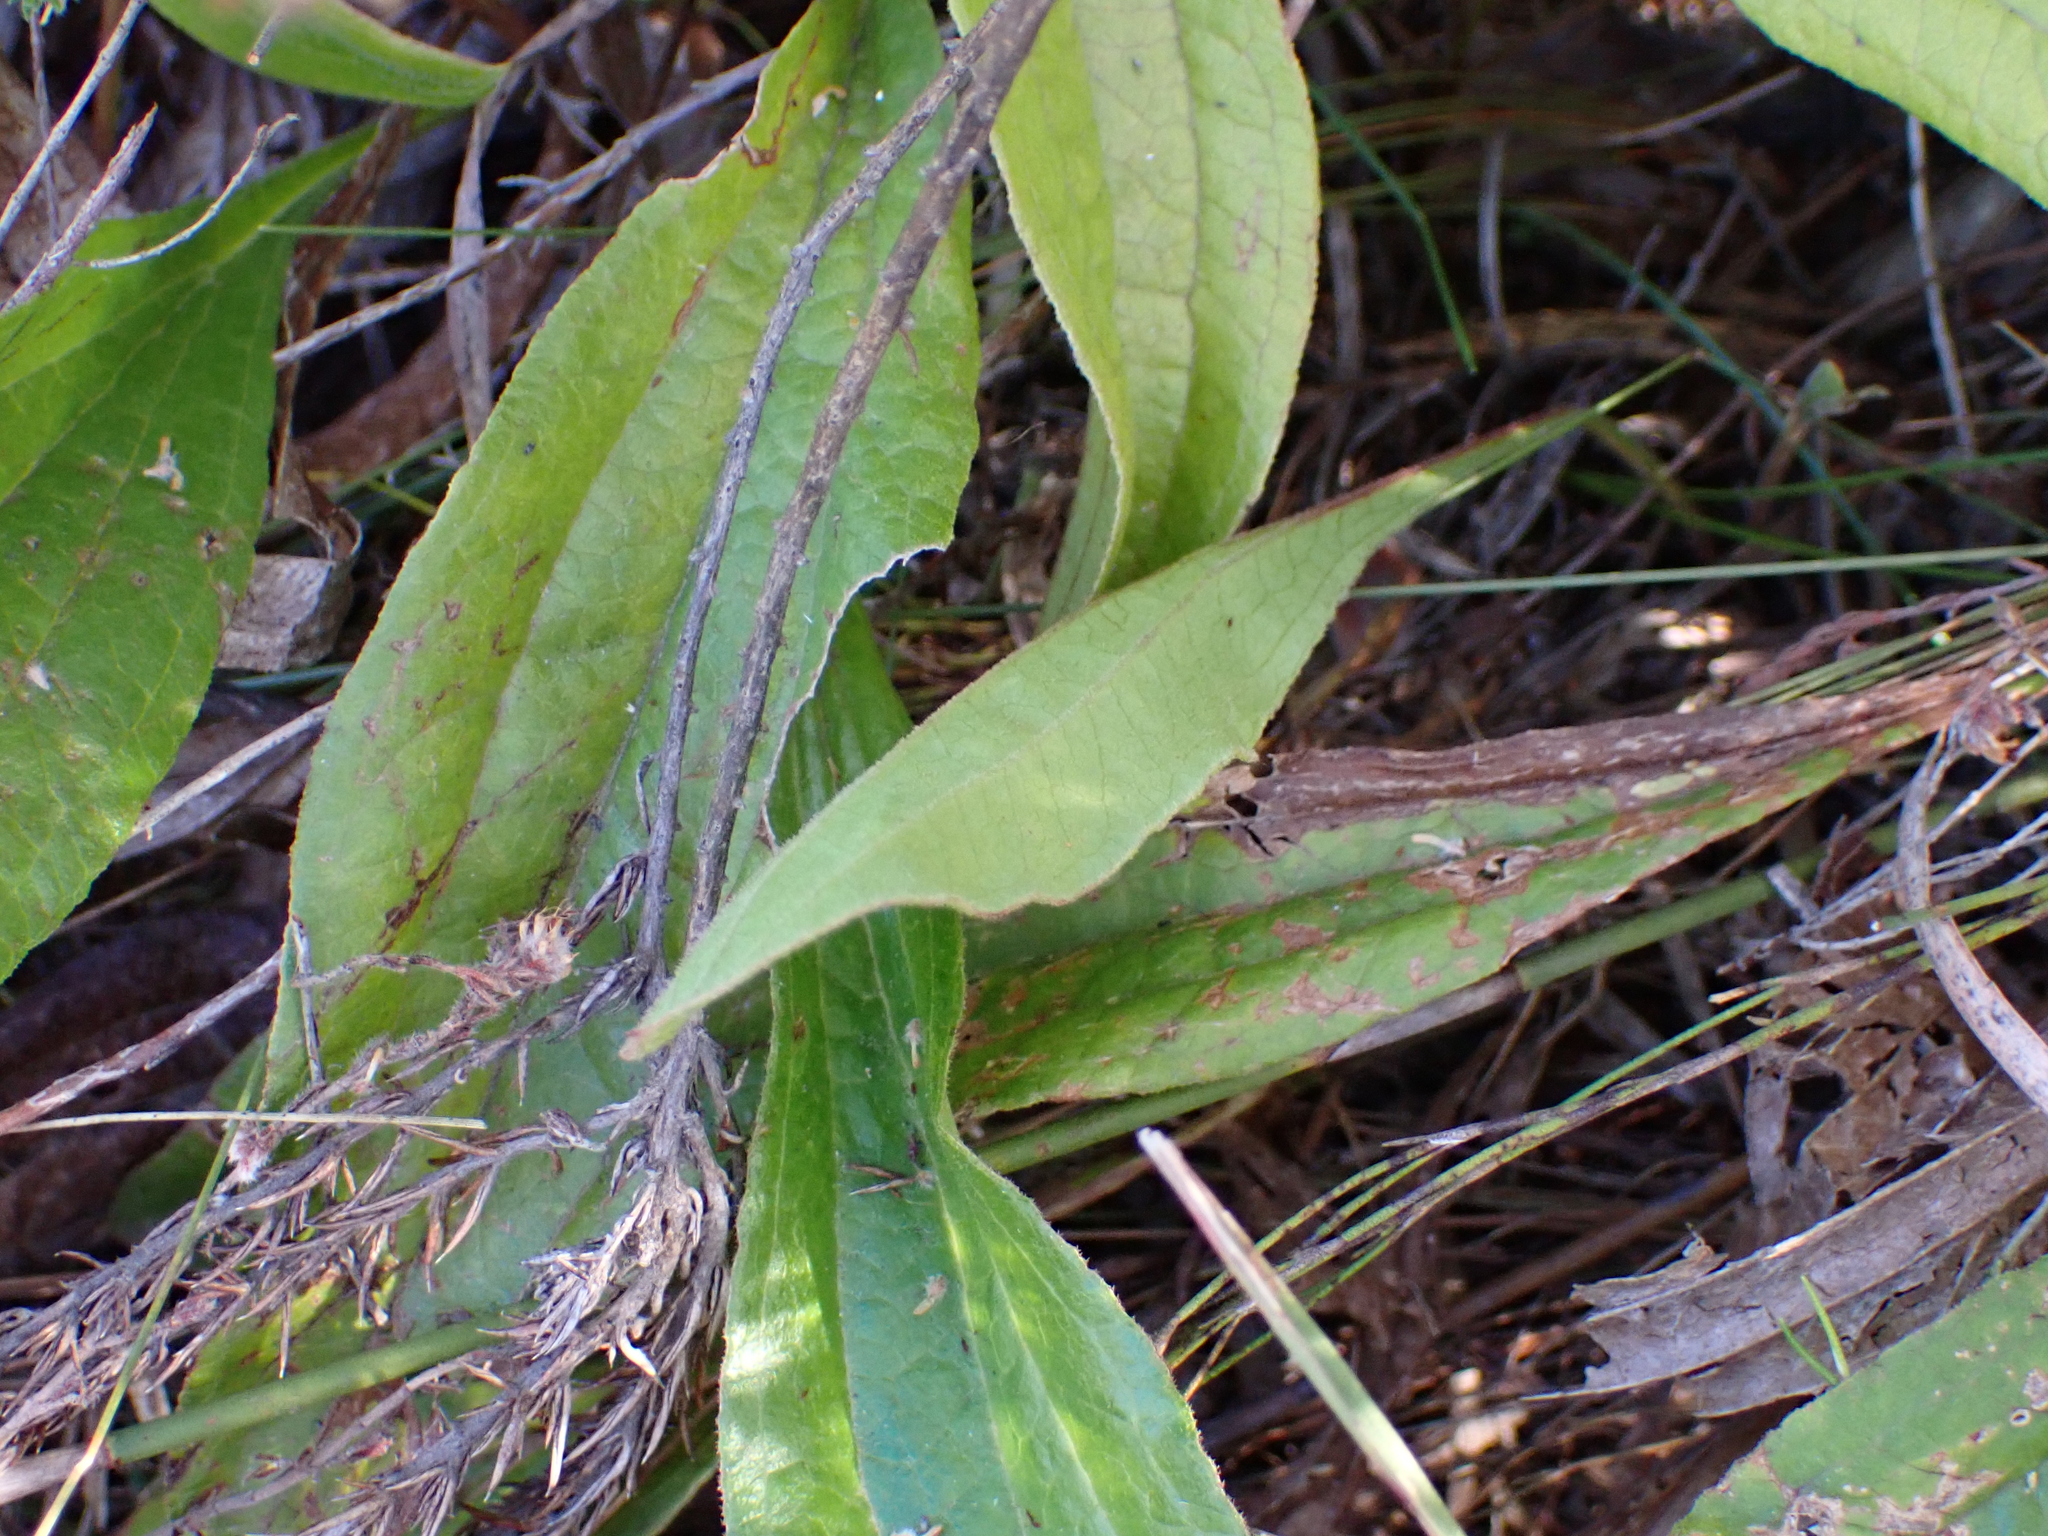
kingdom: Plantae
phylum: Tracheophyta
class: Magnoliopsida
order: Asterales
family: Asteraceae
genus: Helichrysum
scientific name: Helichrysum nudifolium
